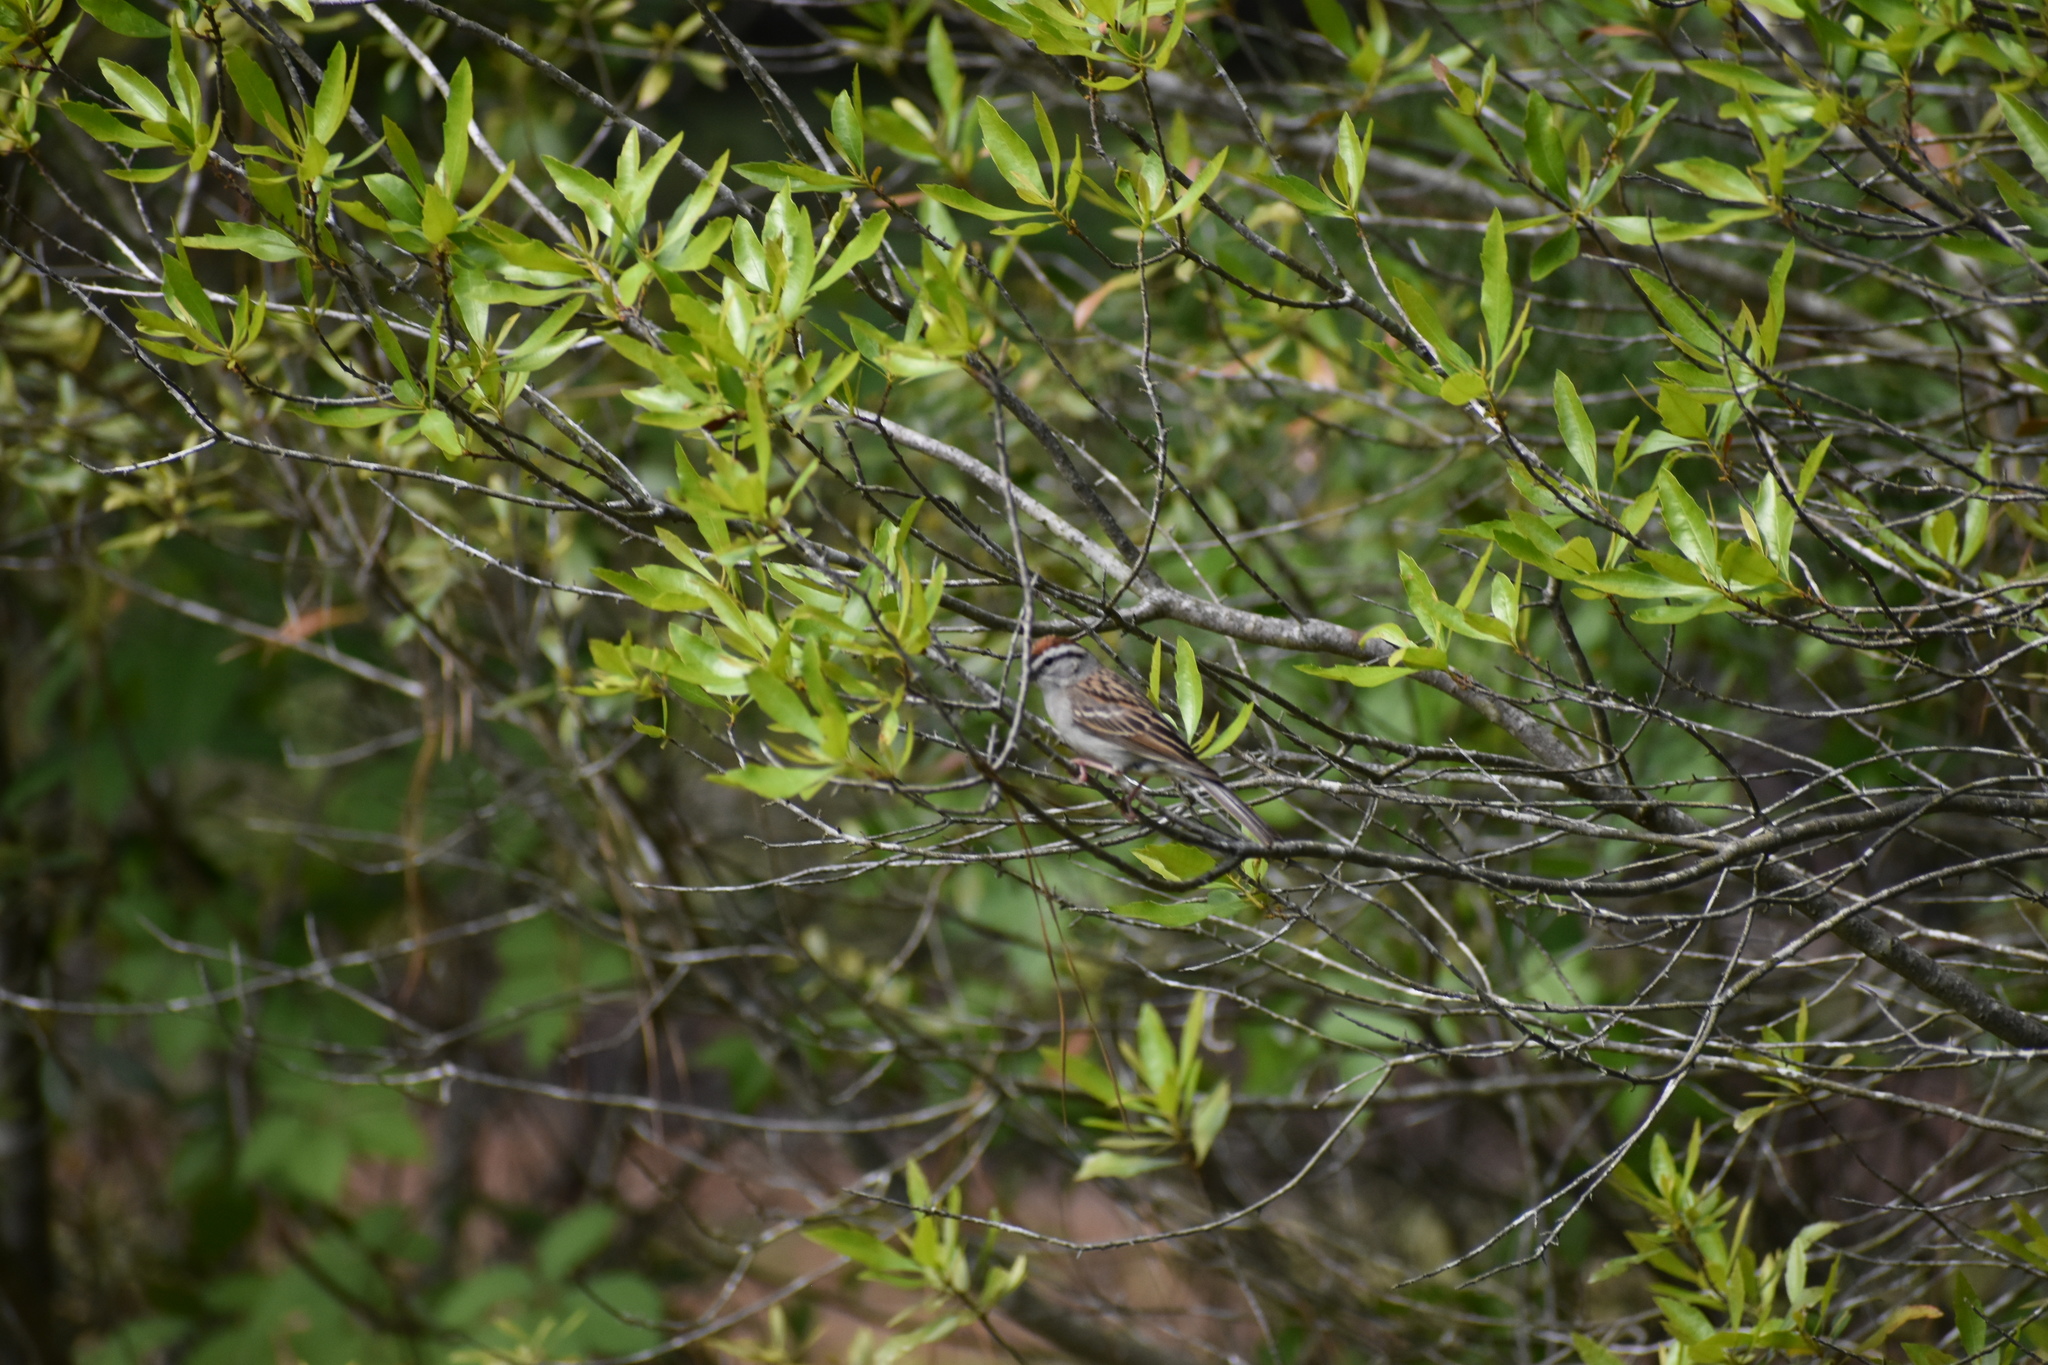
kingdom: Animalia
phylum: Chordata
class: Aves
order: Passeriformes
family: Passerellidae
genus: Spizella
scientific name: Spizella passerina
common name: Chipping sparrow
